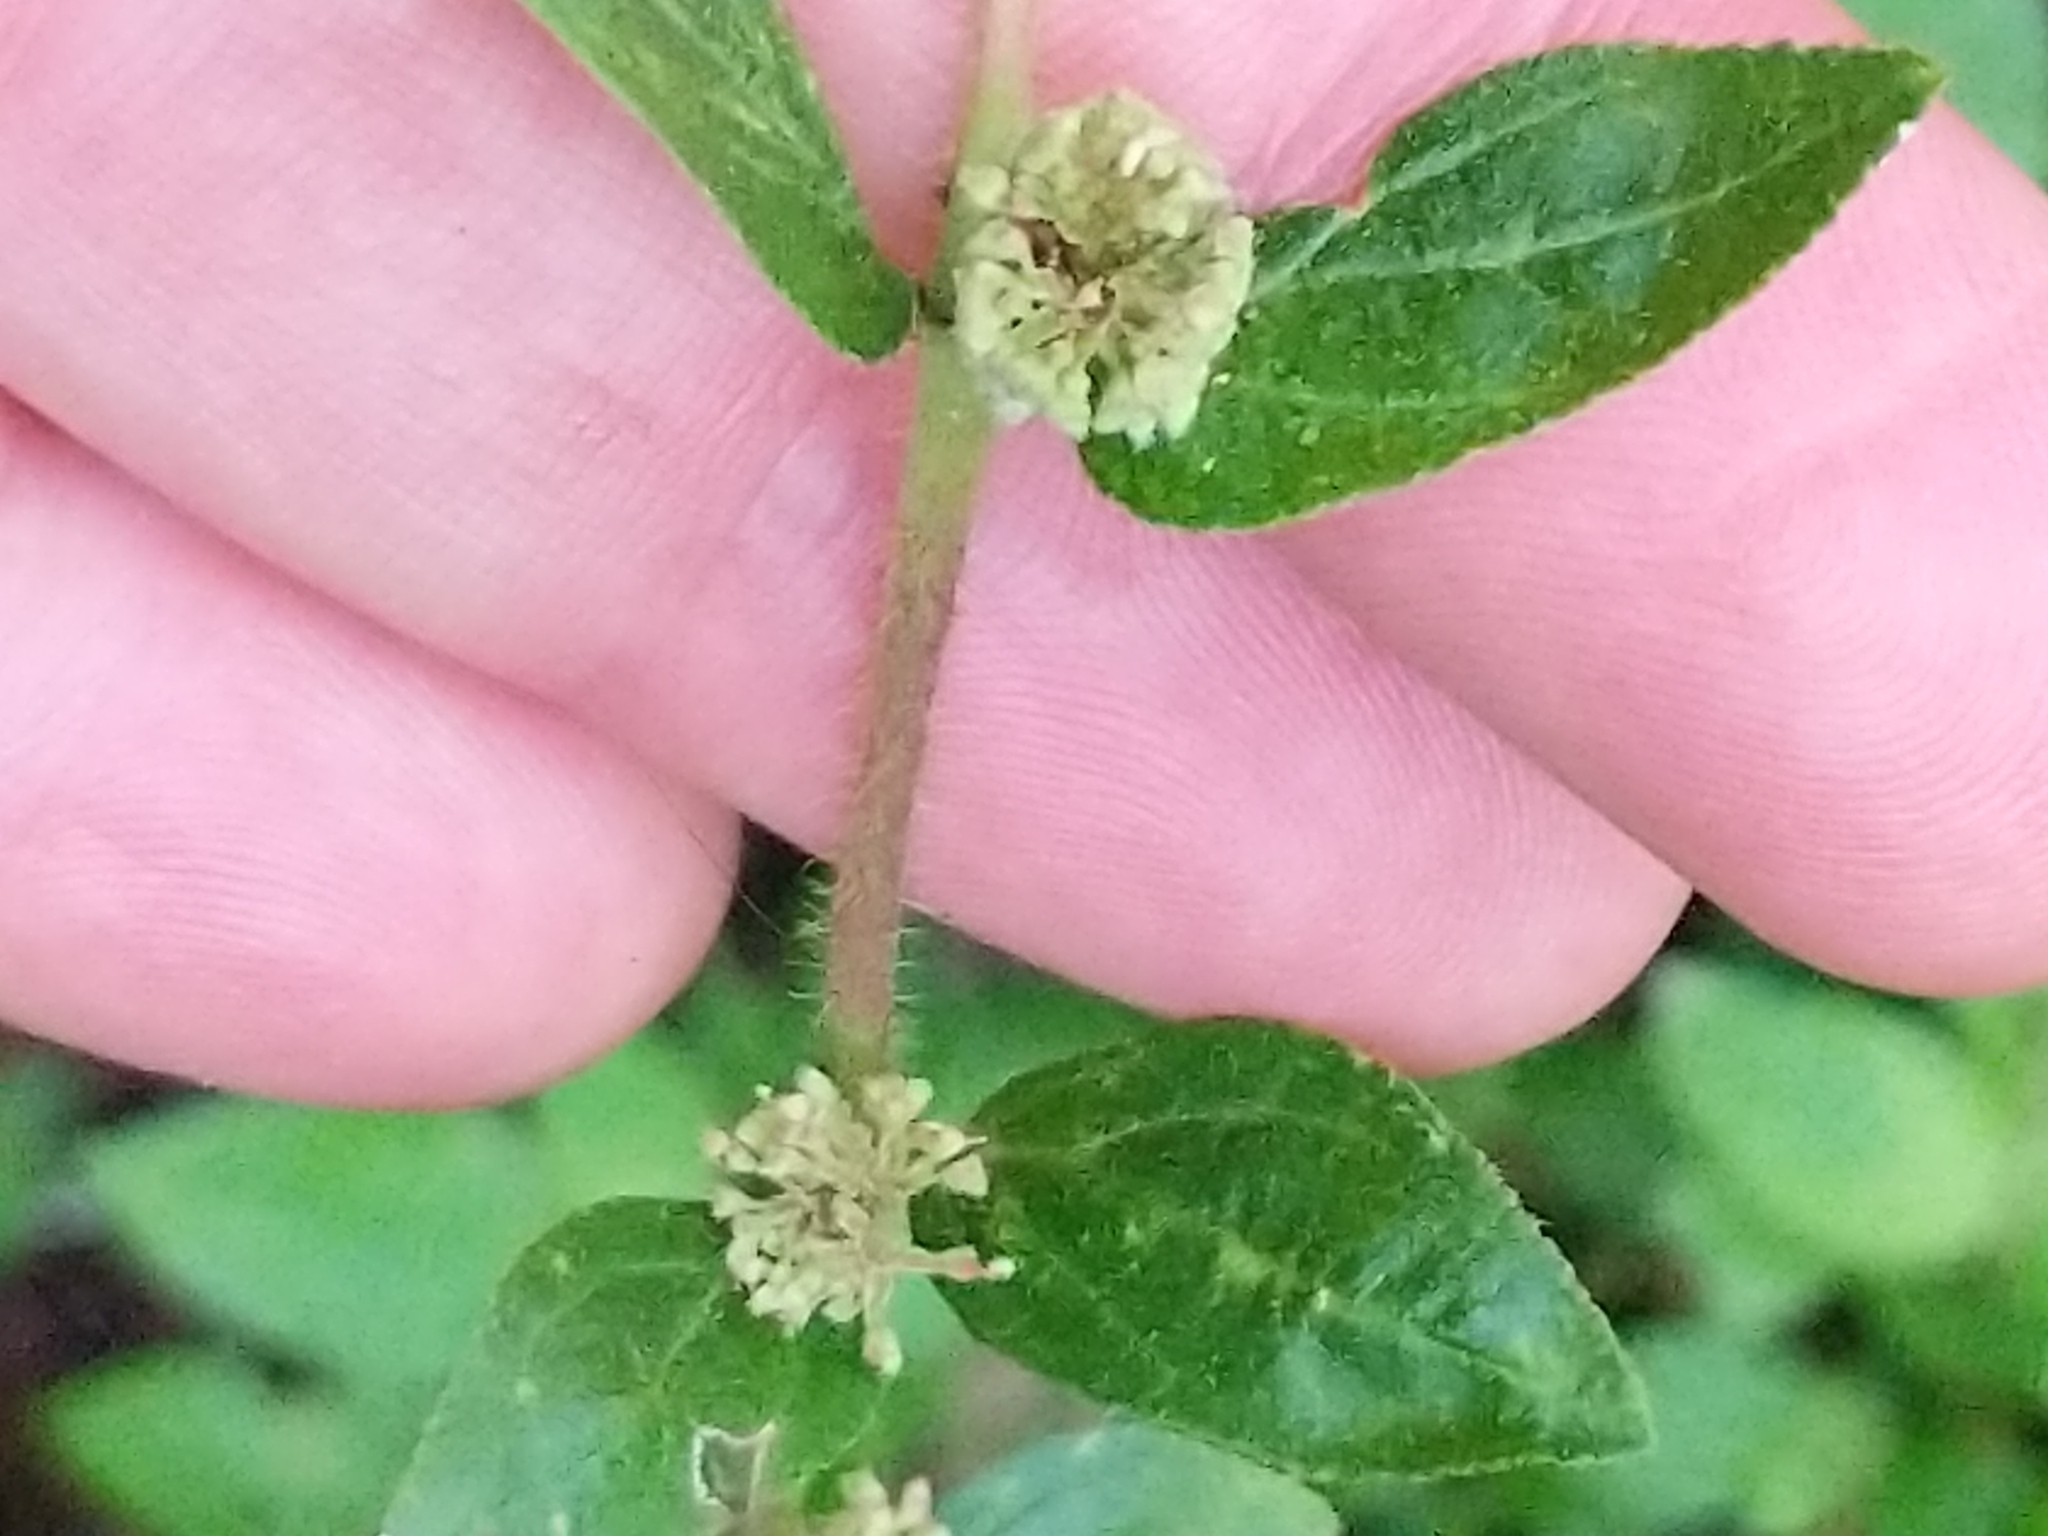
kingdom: Plantae
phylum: Tracheophyta
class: Magnoliopsida
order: Malpighiales
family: Euphorbiaceae
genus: Euphorbia
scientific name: Euphorbia hirta
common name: Pillpod sandmat
